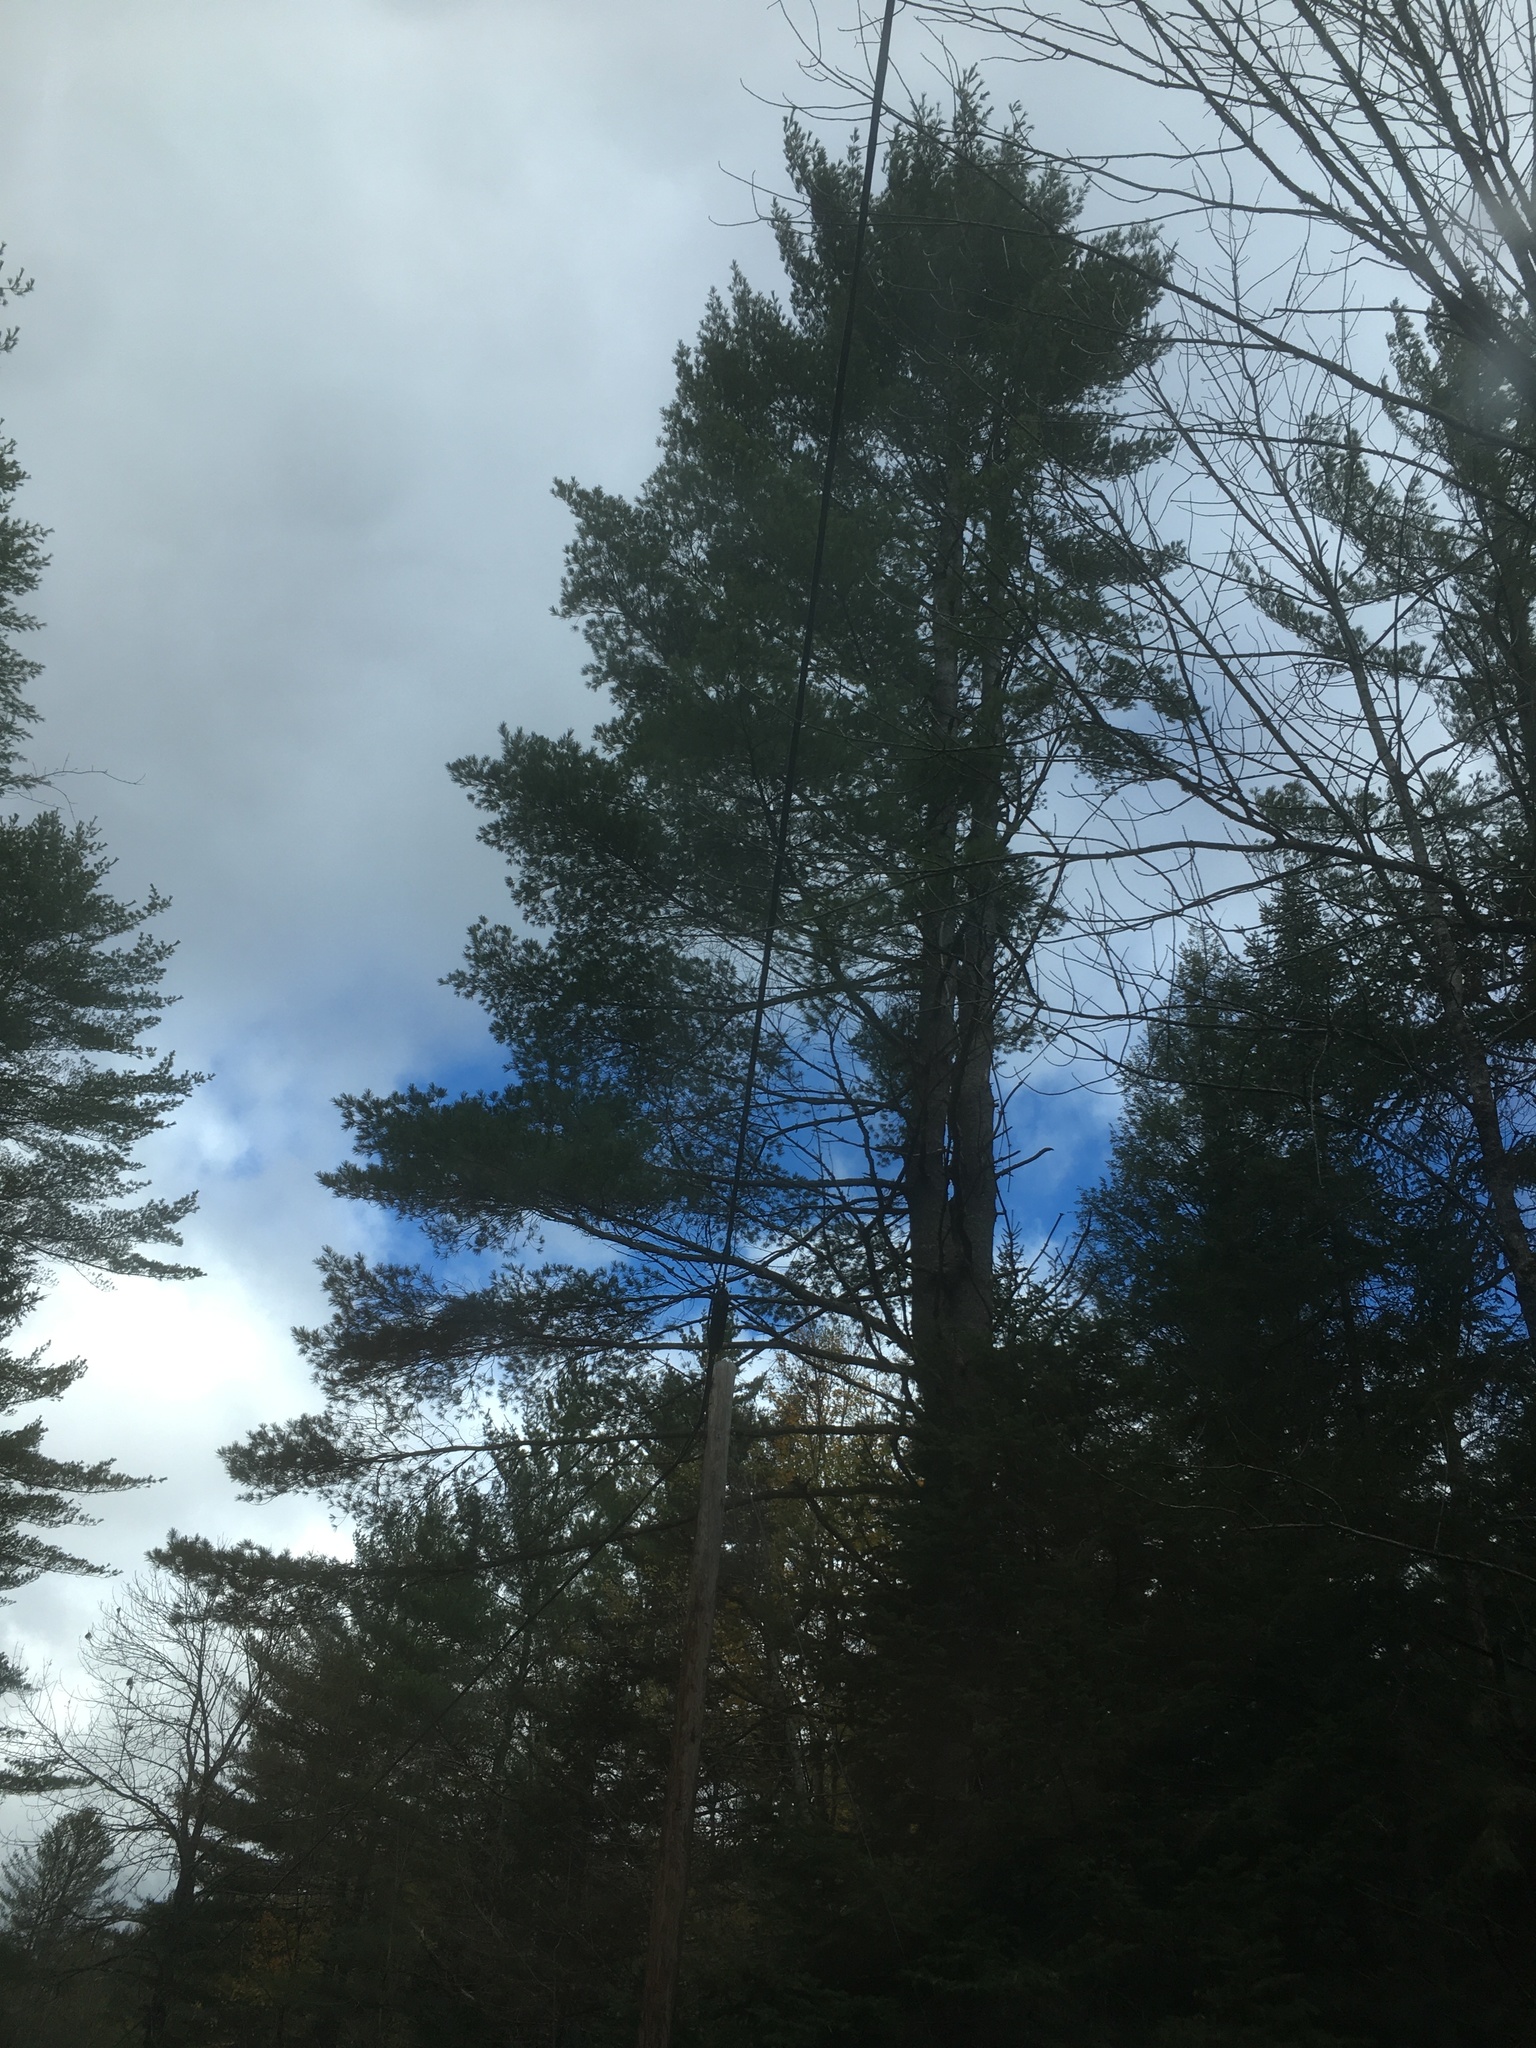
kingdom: Plantae
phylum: Tracheophyta
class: Pinopsida
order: Pinales
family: Pinaceae
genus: Pinus
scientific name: Pinus strobus
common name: Weymouth pine
